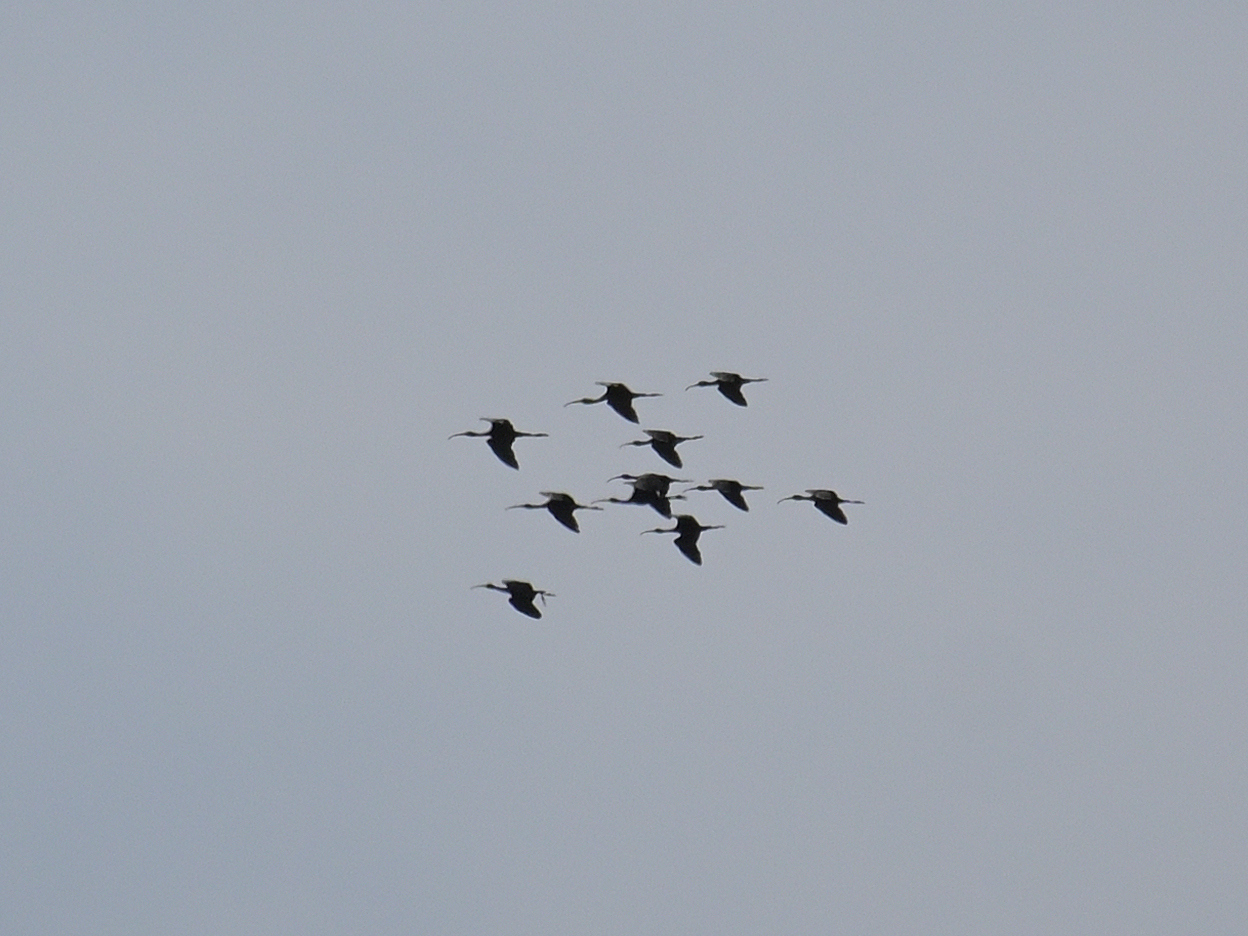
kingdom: Animalia
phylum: Chordata
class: Aves
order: Pelecaniformes
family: Threskiornithidae
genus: Plegadis
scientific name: Plegadis falcinellus
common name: Glossy ibis
